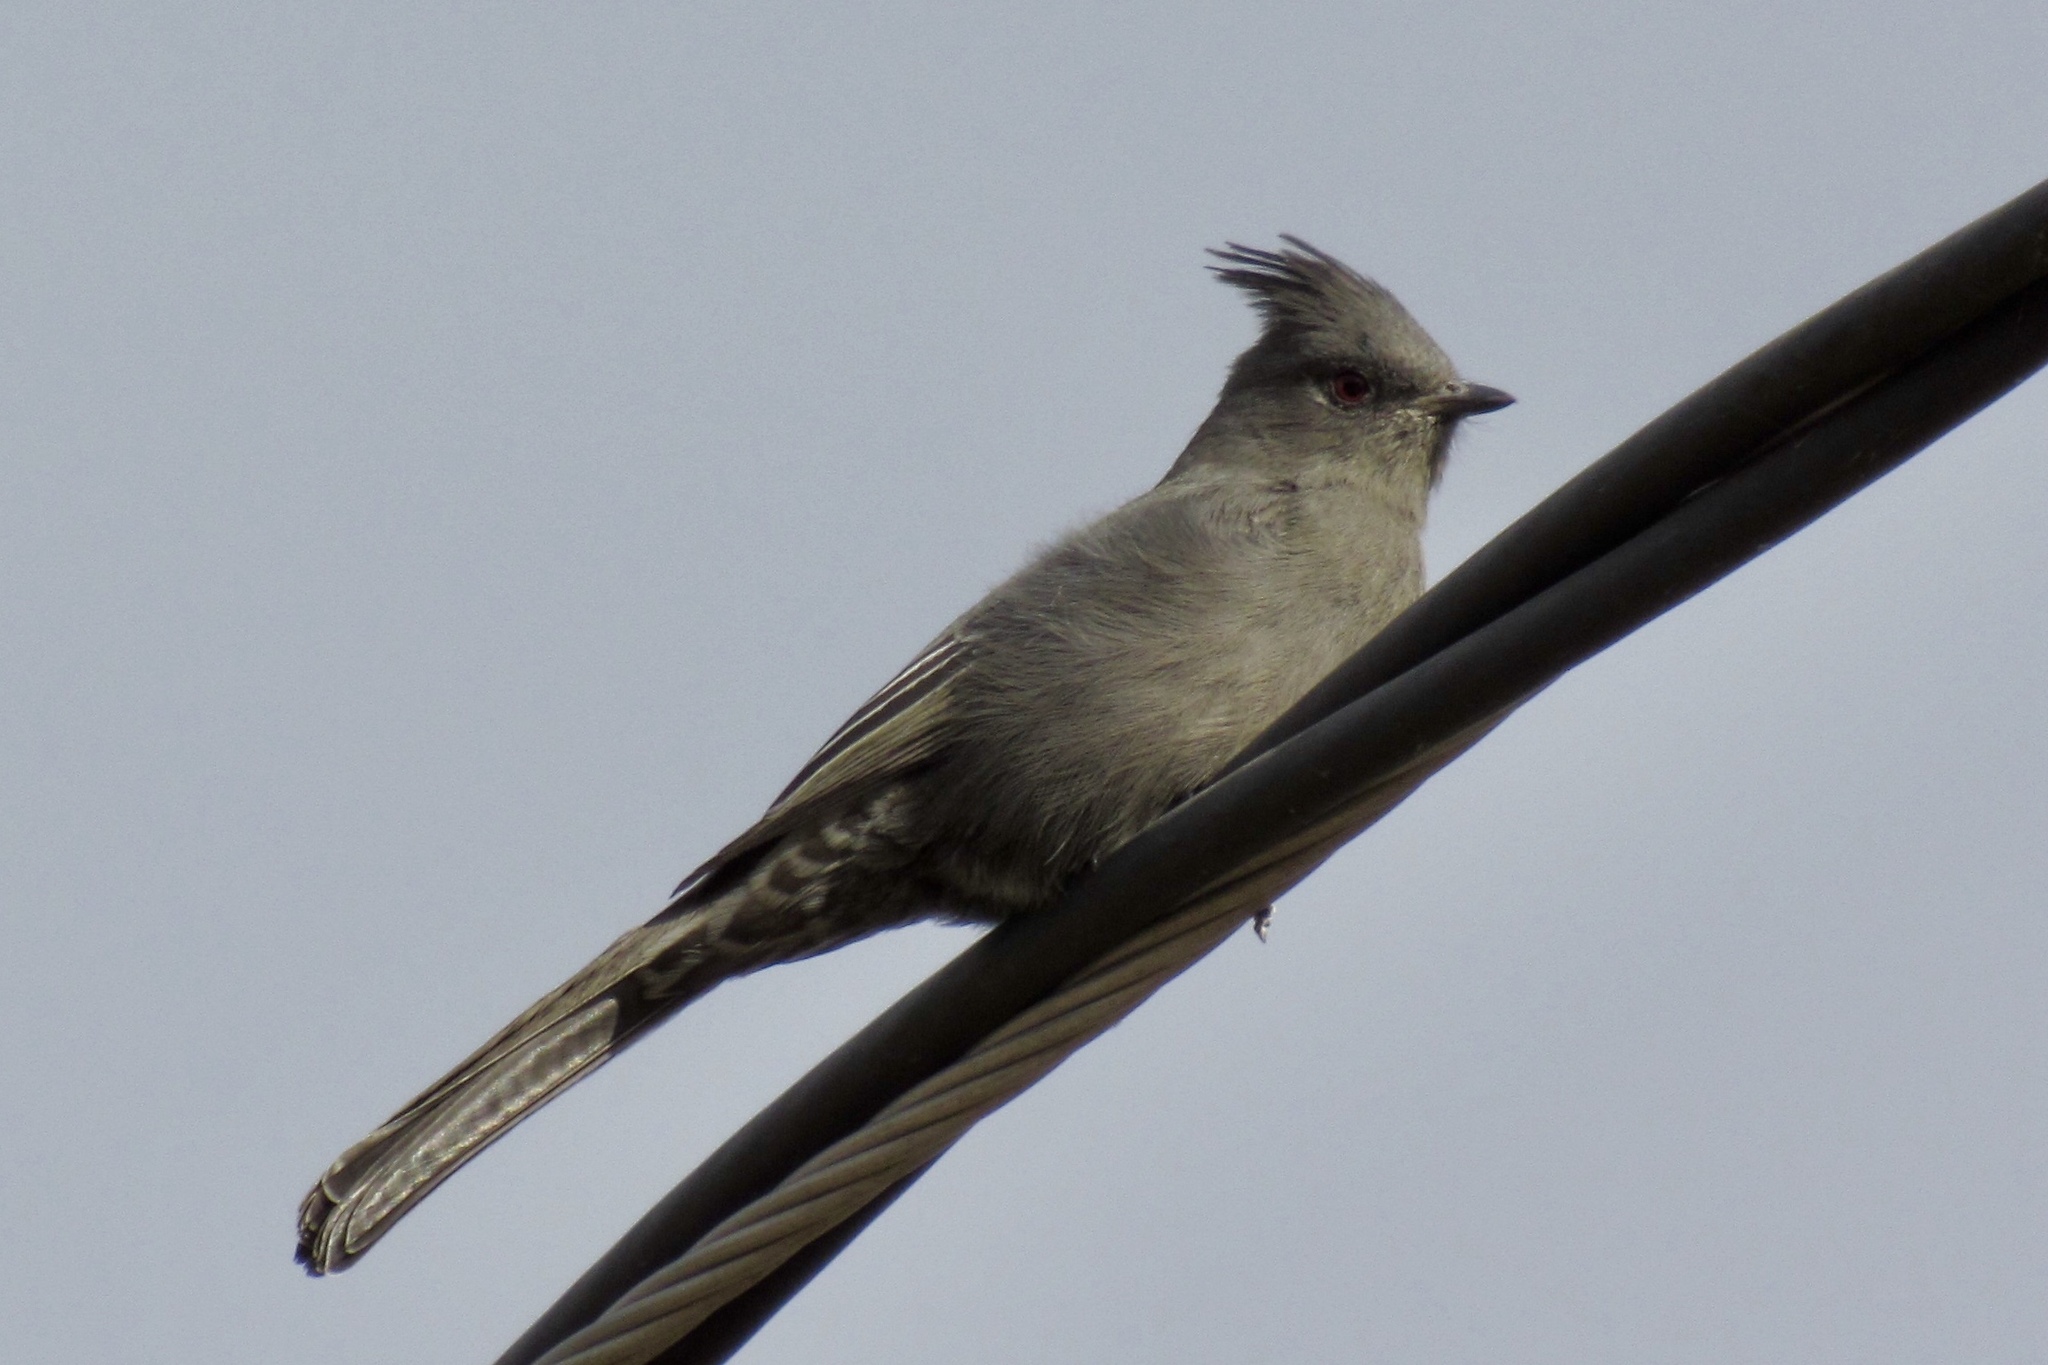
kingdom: Animalia
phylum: Chordata
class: Aves
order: Passeriformes
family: Ptilogonatidae
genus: Phainopepla
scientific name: Phainopepla nitens
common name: Phainopepla
